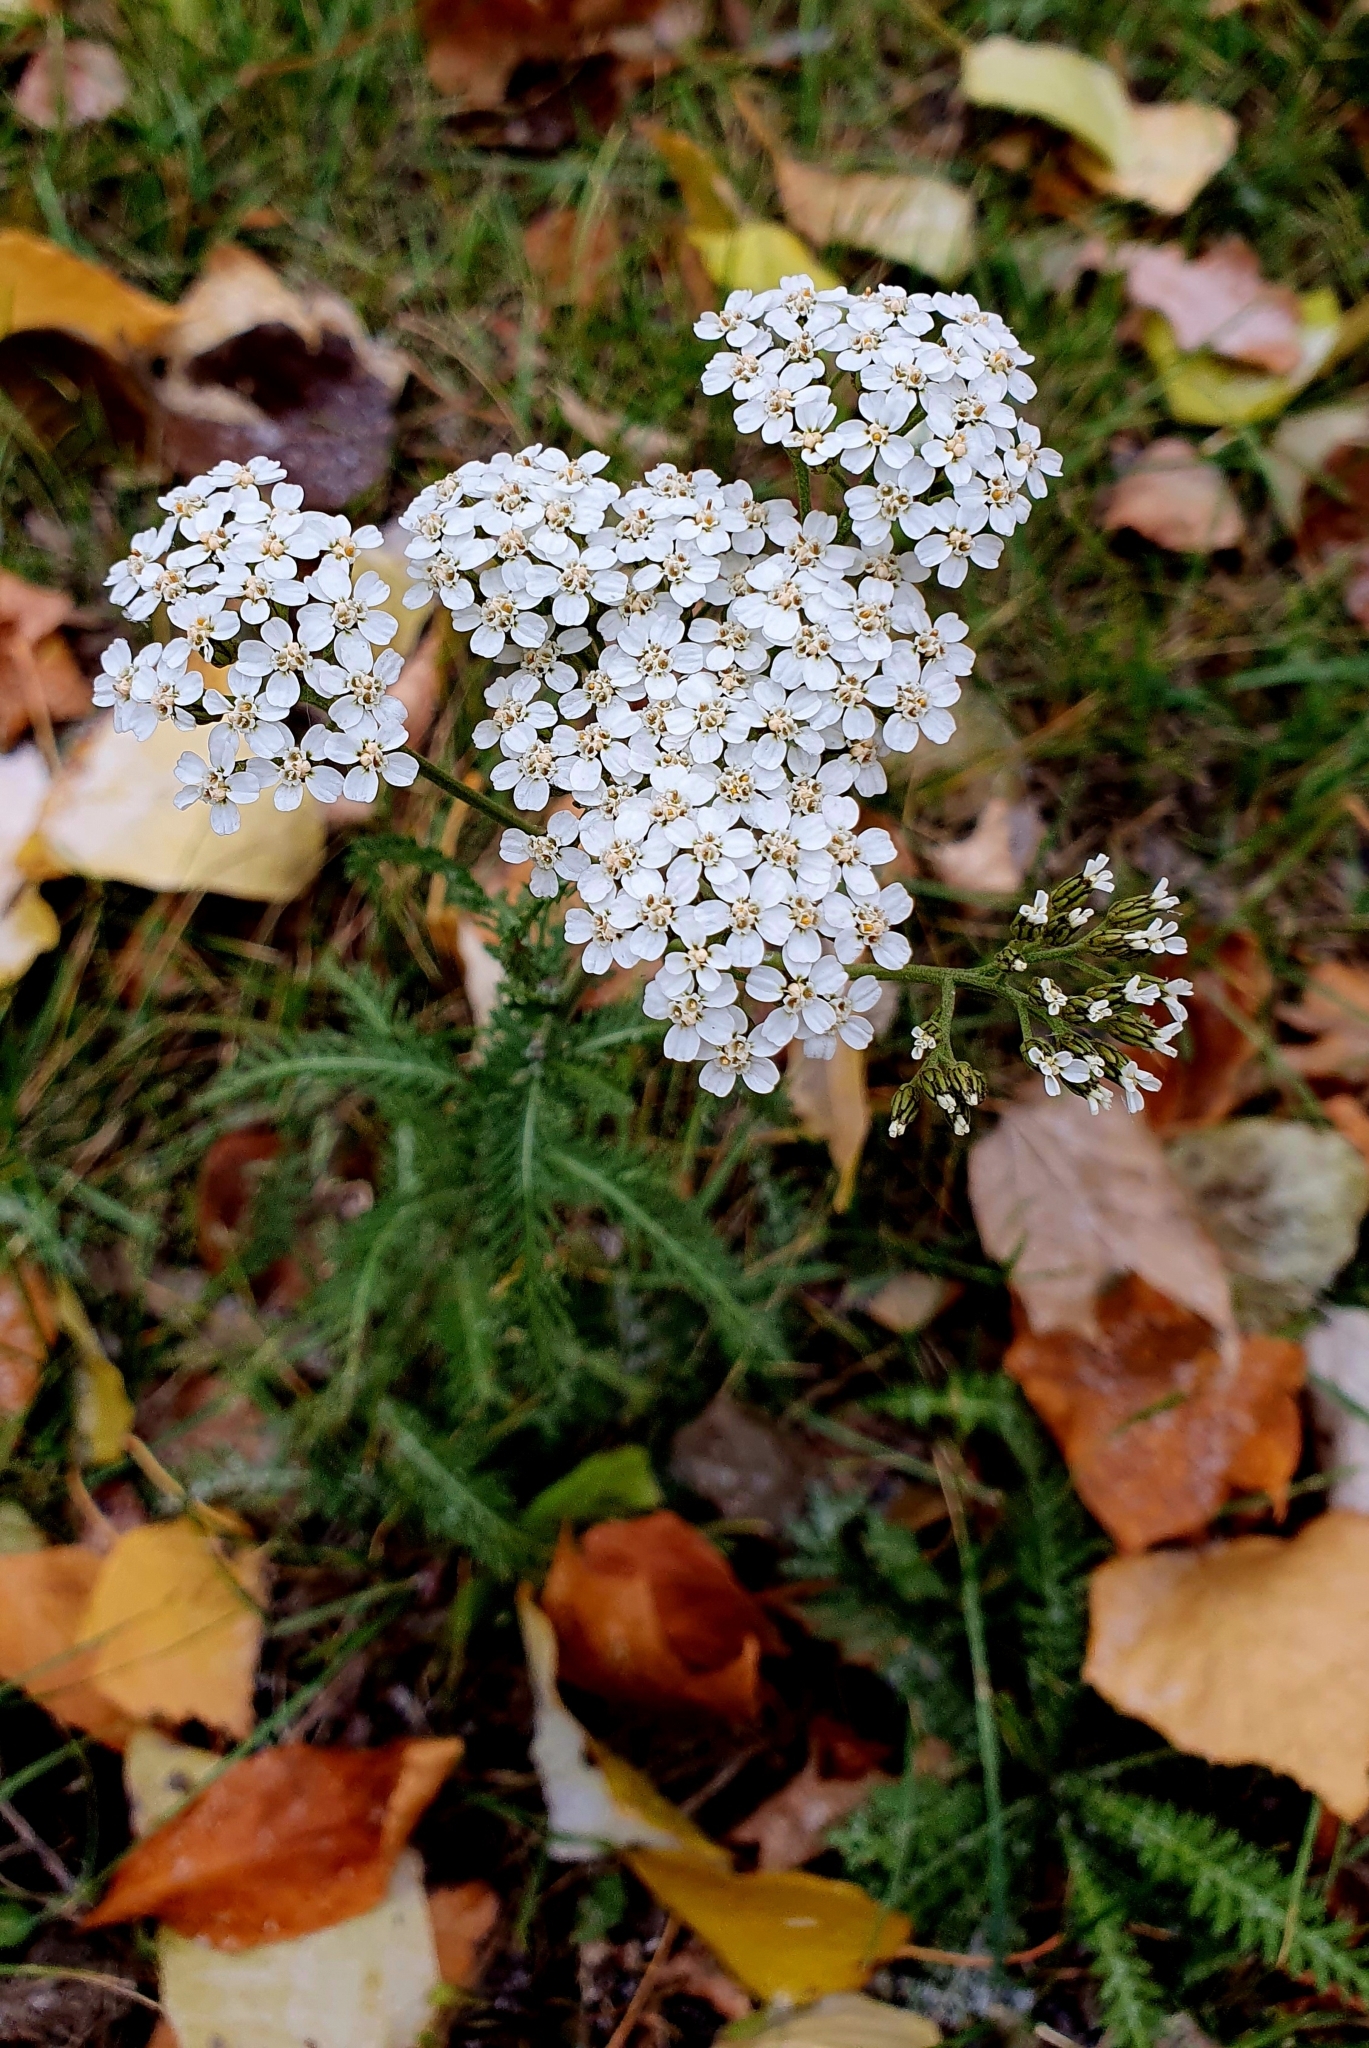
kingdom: Plantae
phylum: Tracheophyta
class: Magnoliopsida
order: Asterales
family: Asteraceae
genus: Achillea
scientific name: Achillea millefolium
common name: Yarrow
